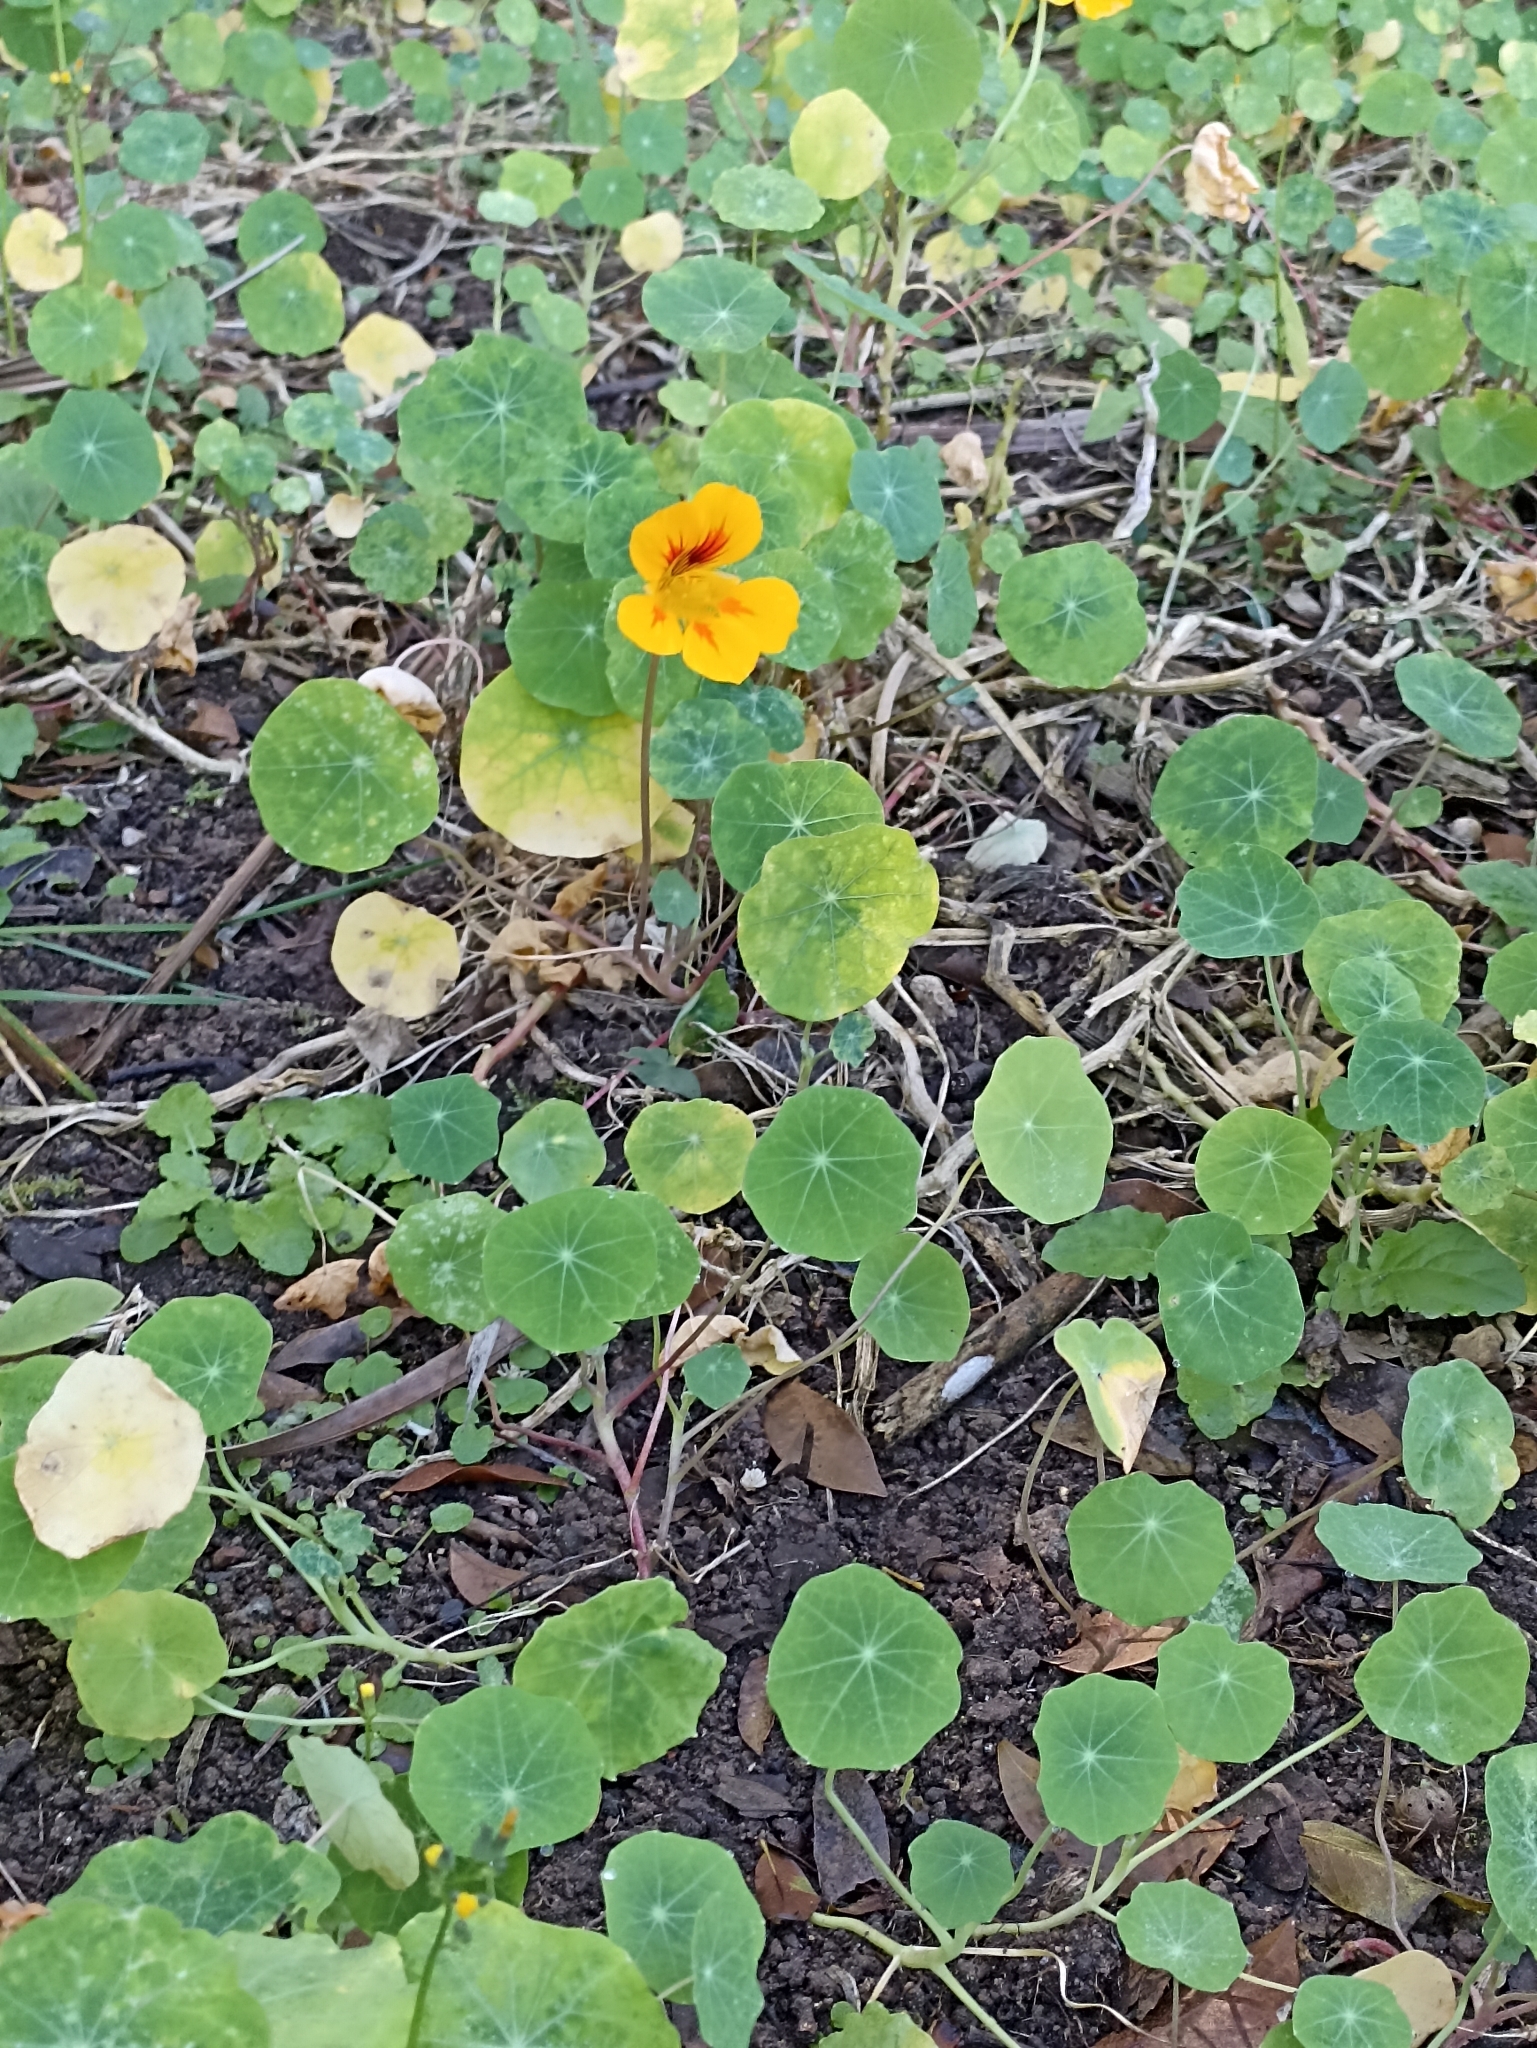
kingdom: Plantae
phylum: Tracheophyta
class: Magnoliopsida
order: Brassicales
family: Tropaeolaceae
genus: Tropaeolum
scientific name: Tropaeolum majus
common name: Nasturtium
